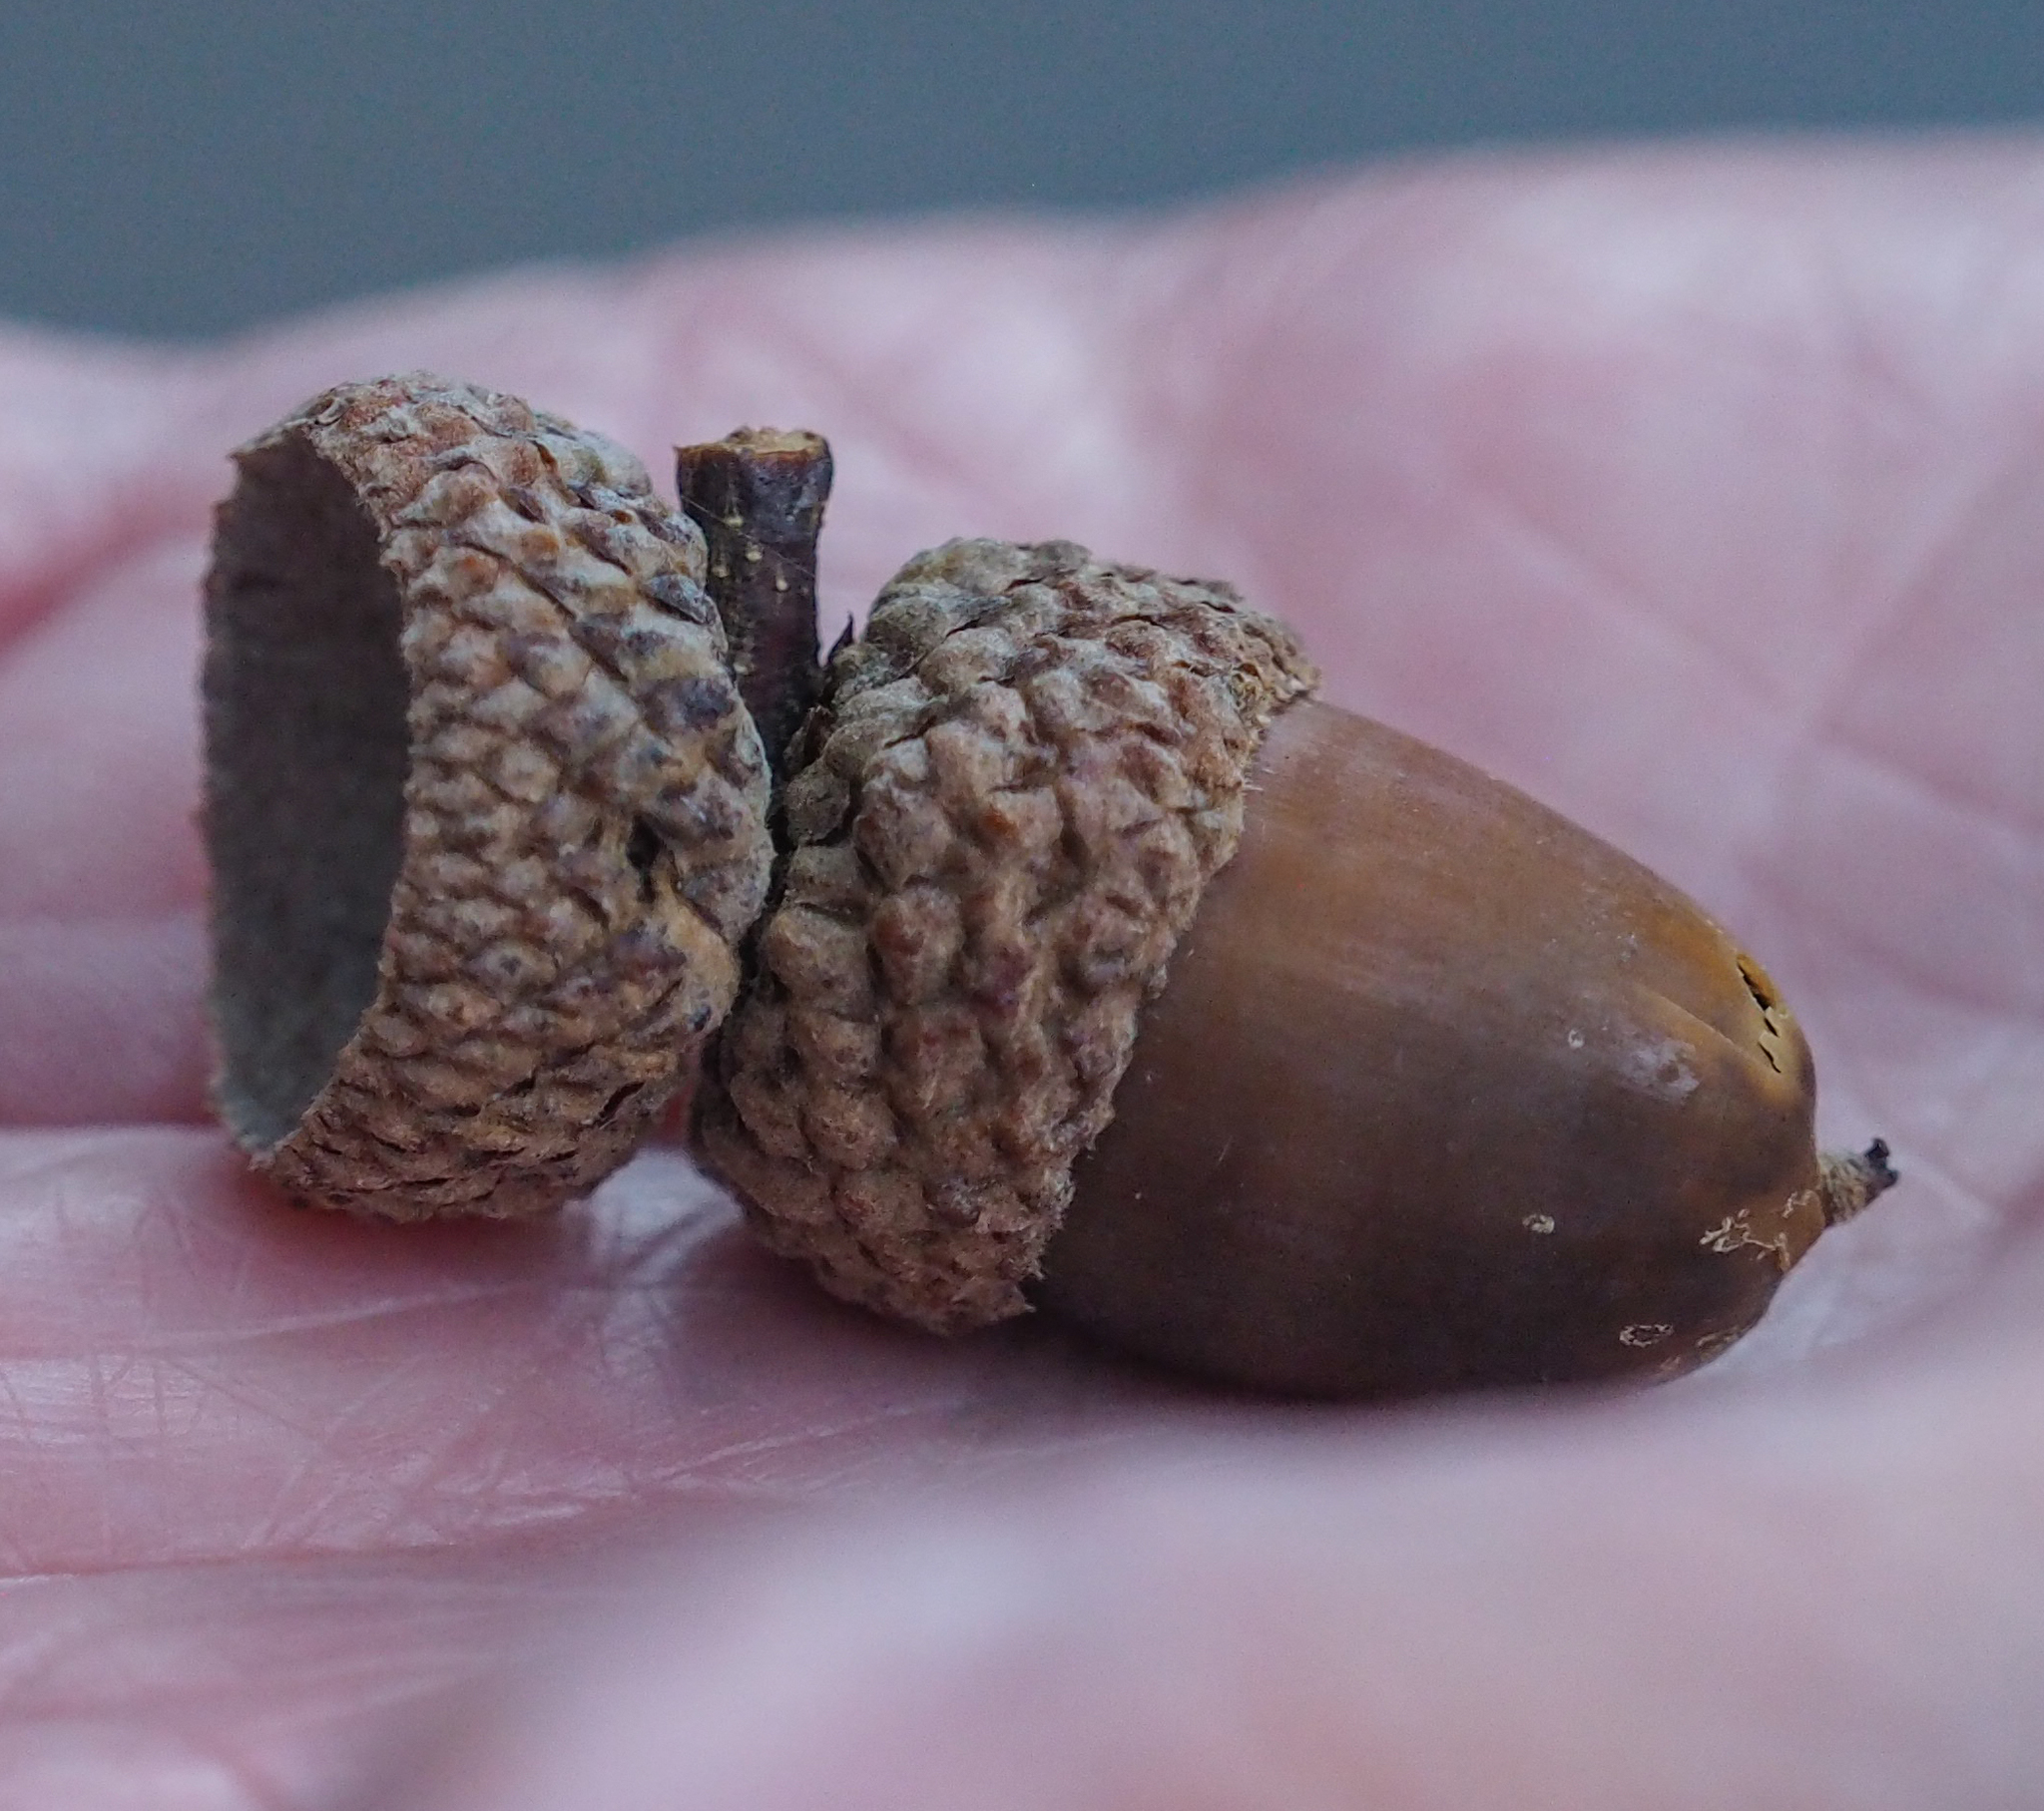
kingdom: Plantae
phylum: Tracheophyta
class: Magnoliopsida
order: Fagales
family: Fagaceae
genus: Quercus
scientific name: Quercus alba
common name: White oak
